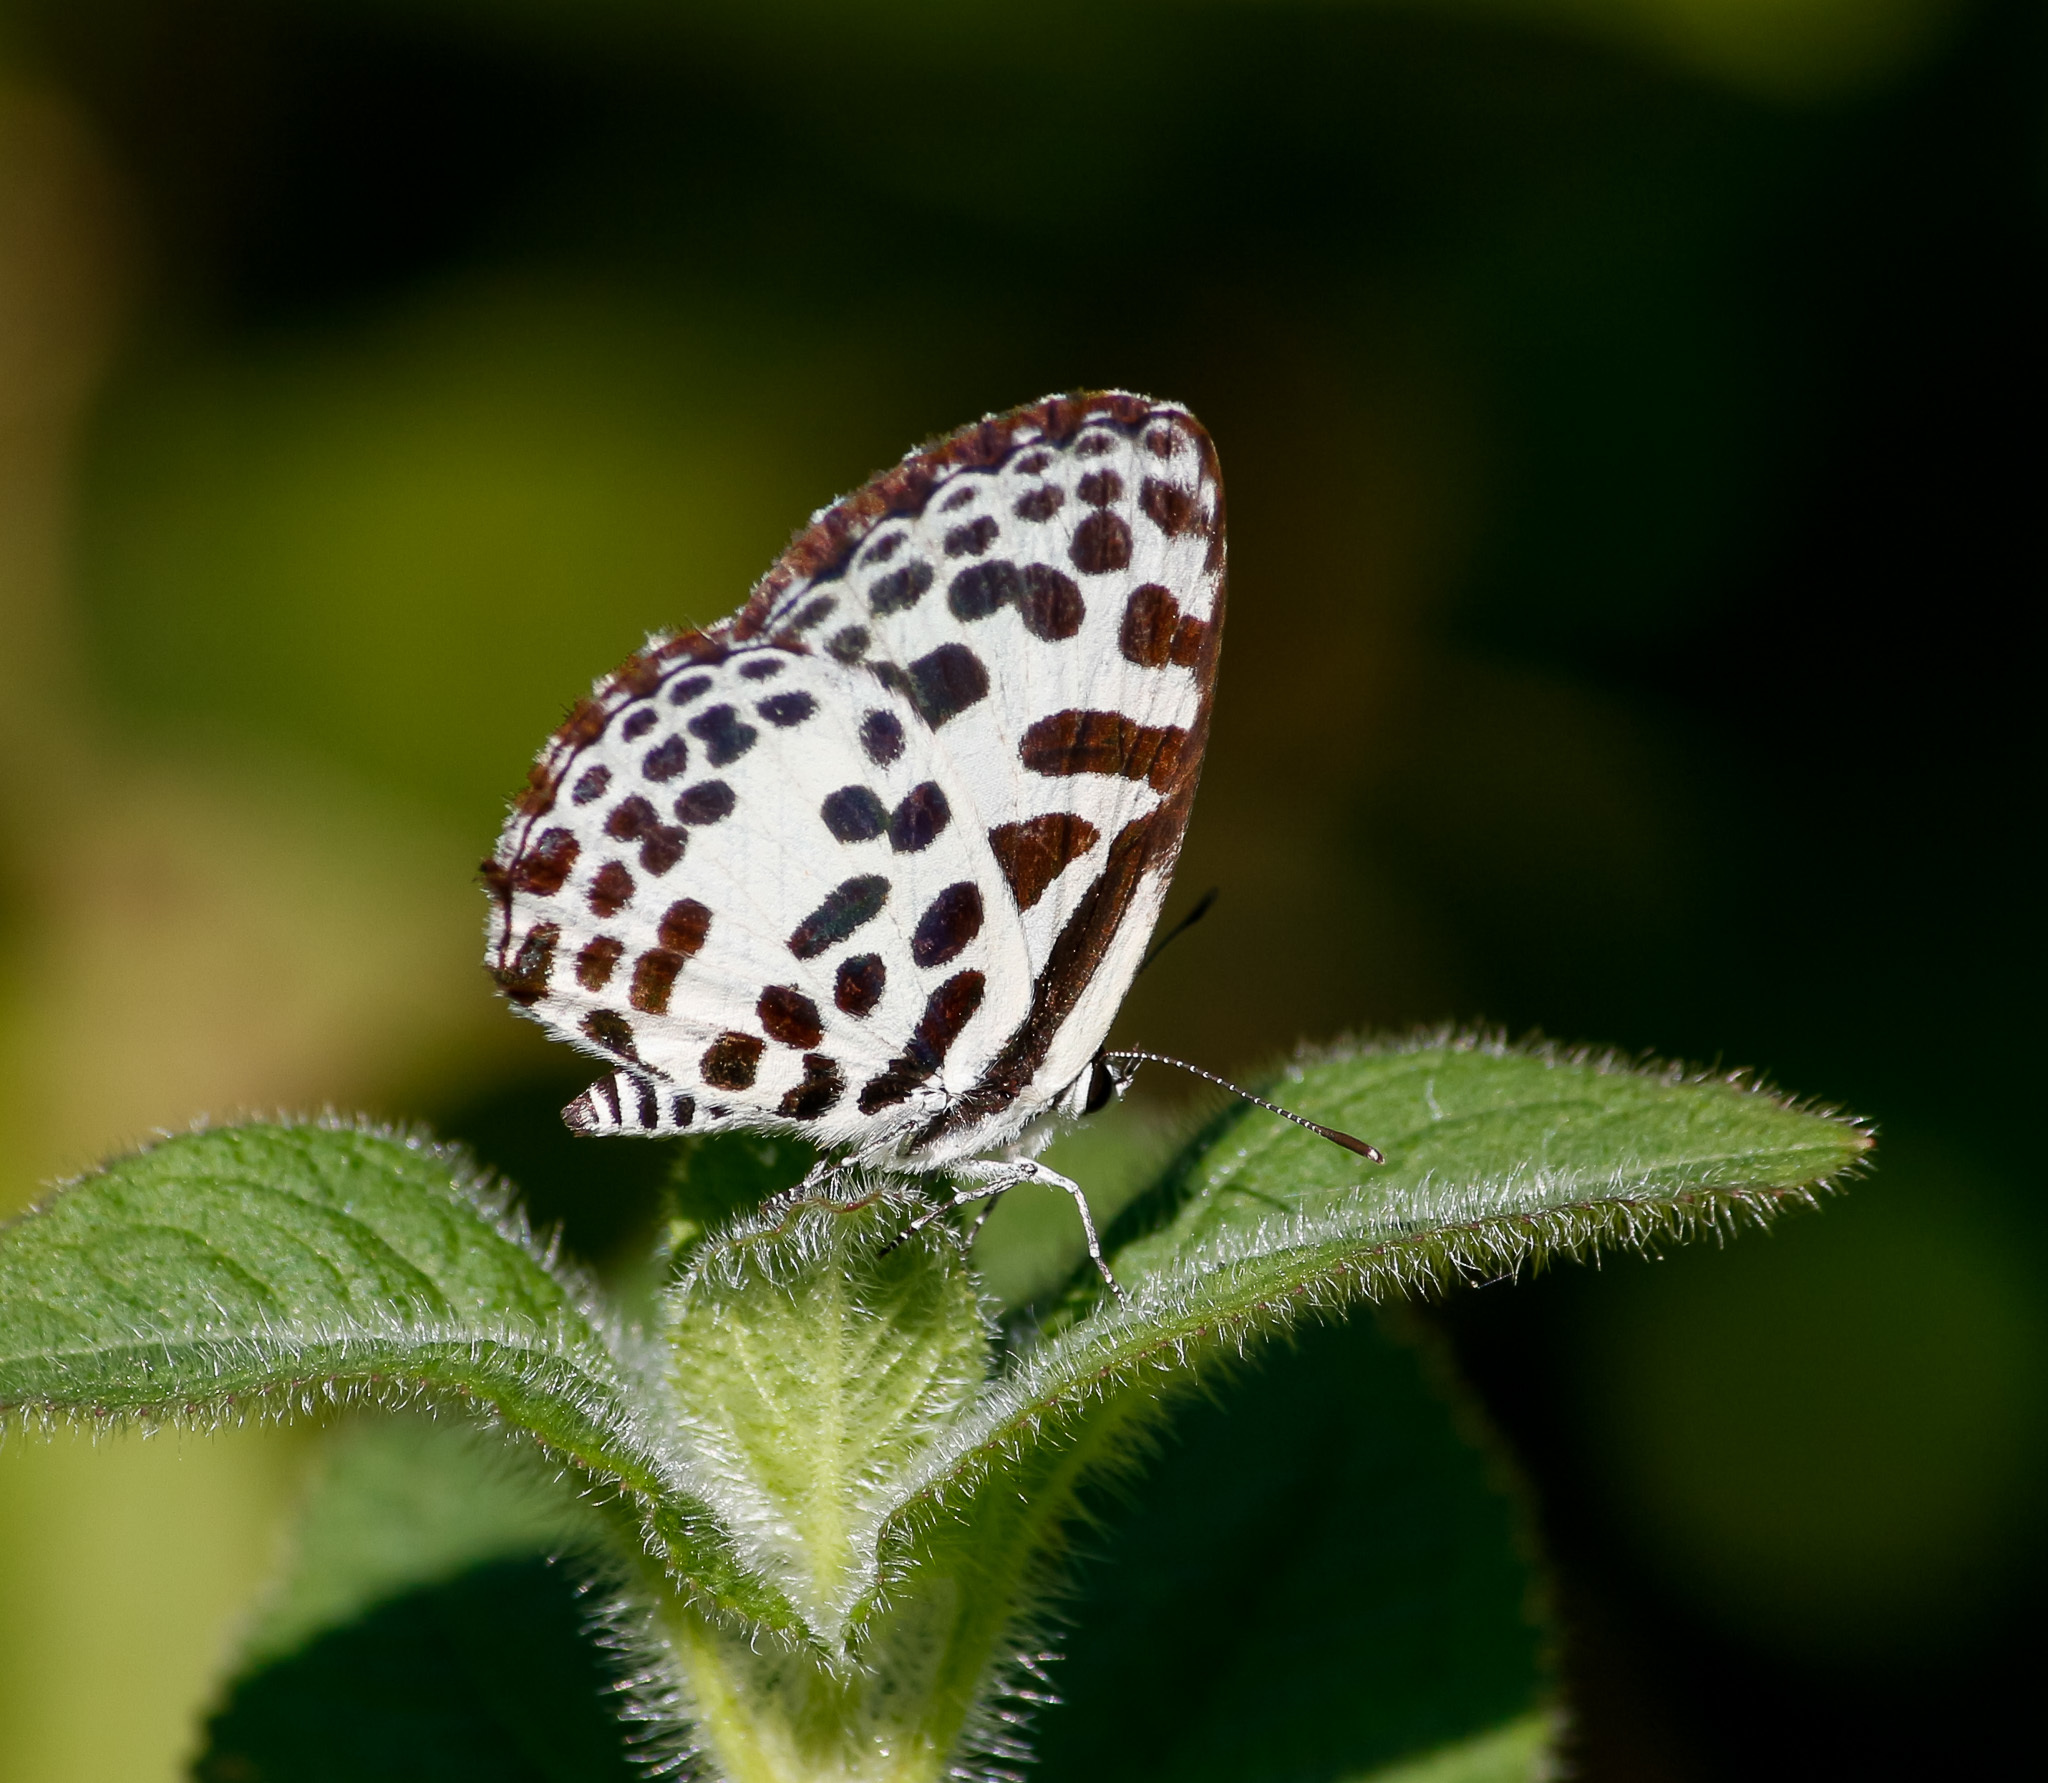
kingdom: Animalia
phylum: Arthropoda
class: Insecta
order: Lepidoptera
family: Lycaenidae
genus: Castalius
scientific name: Castalius rosimon
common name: Common pierrot
